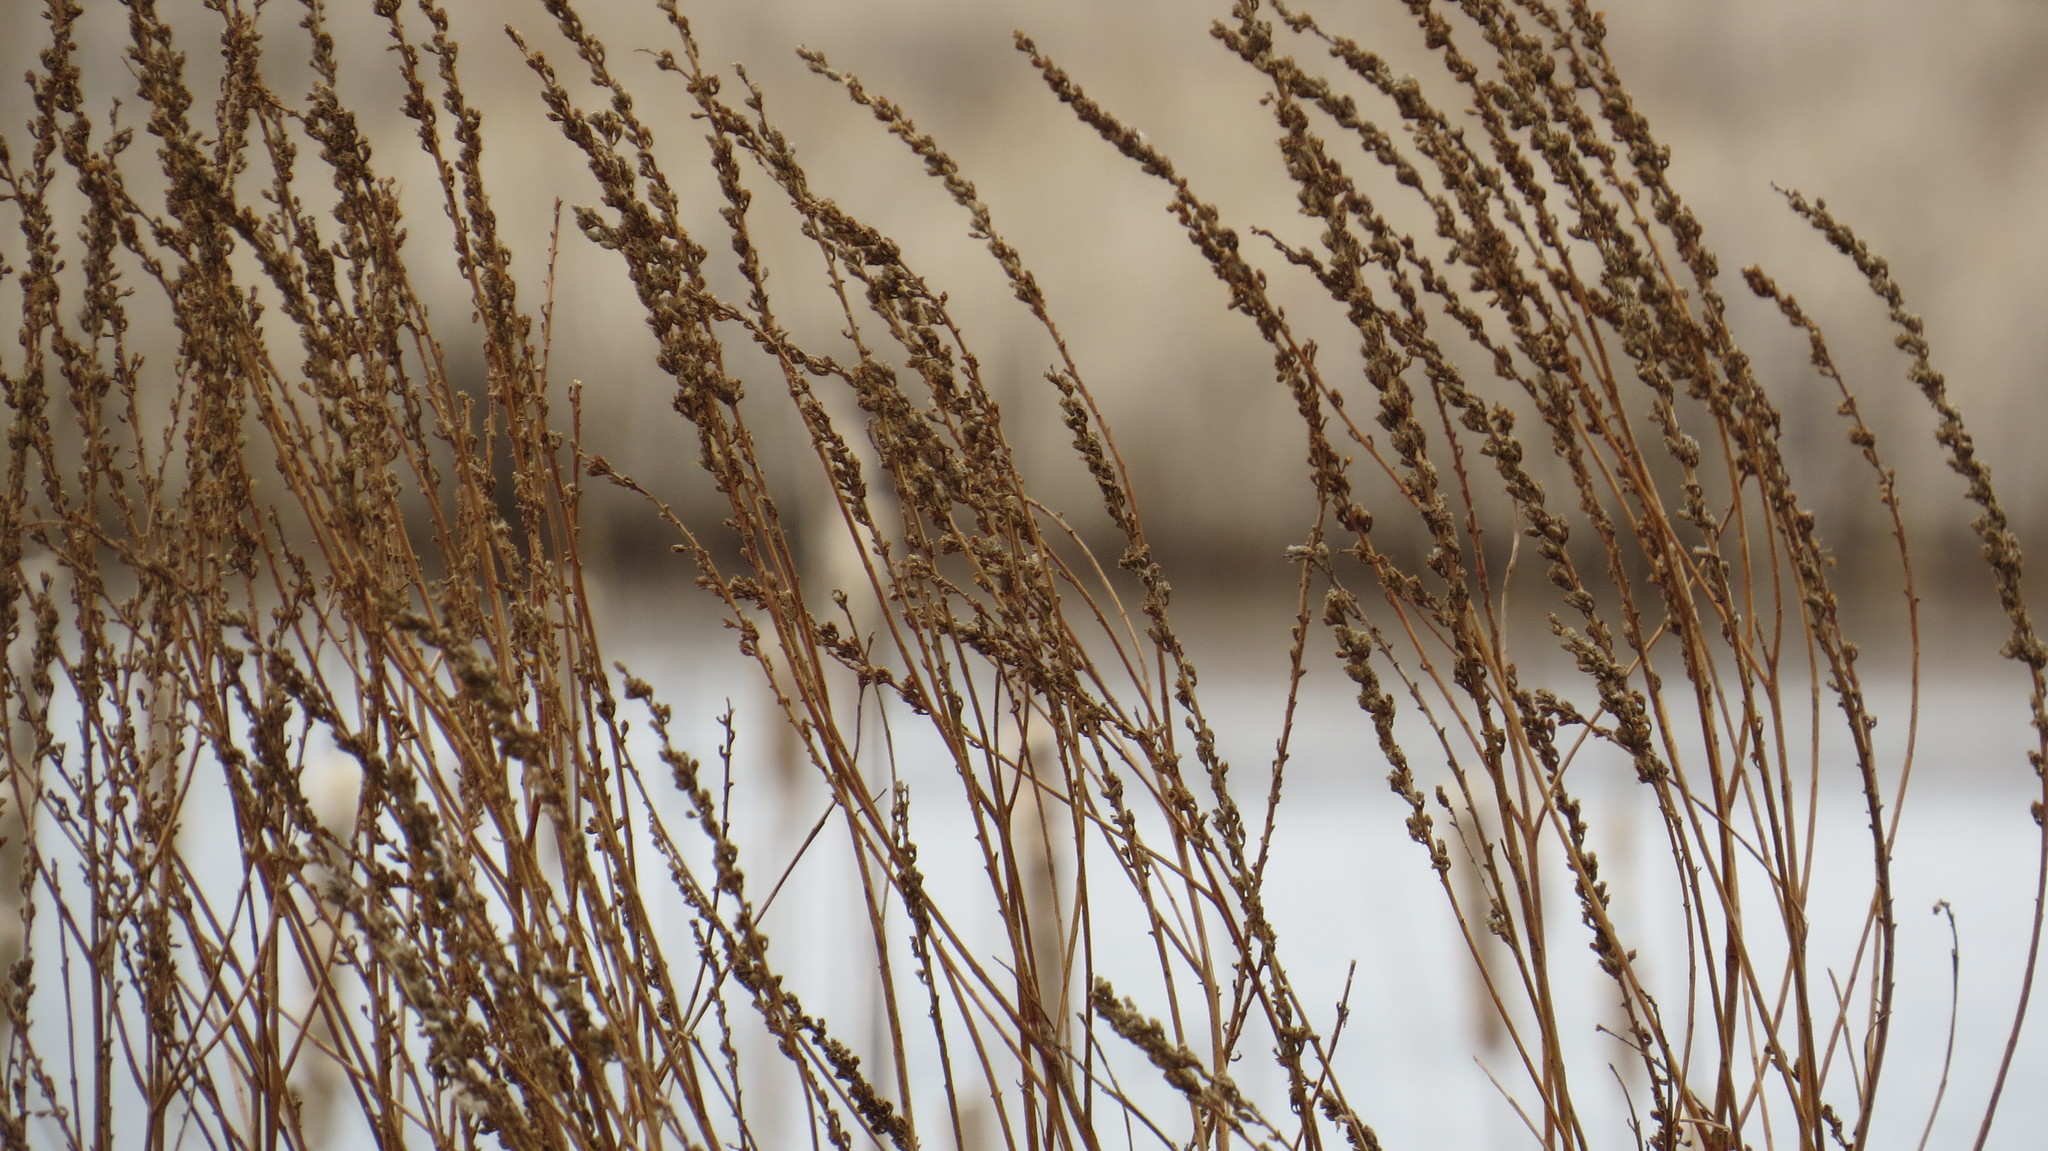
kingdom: Plantae
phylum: Tracheophyta
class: Magnoliopsida
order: Myrtales
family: Lythraceae
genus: Lythrum
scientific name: Lythrum salicaria
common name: Purple loosestrife
